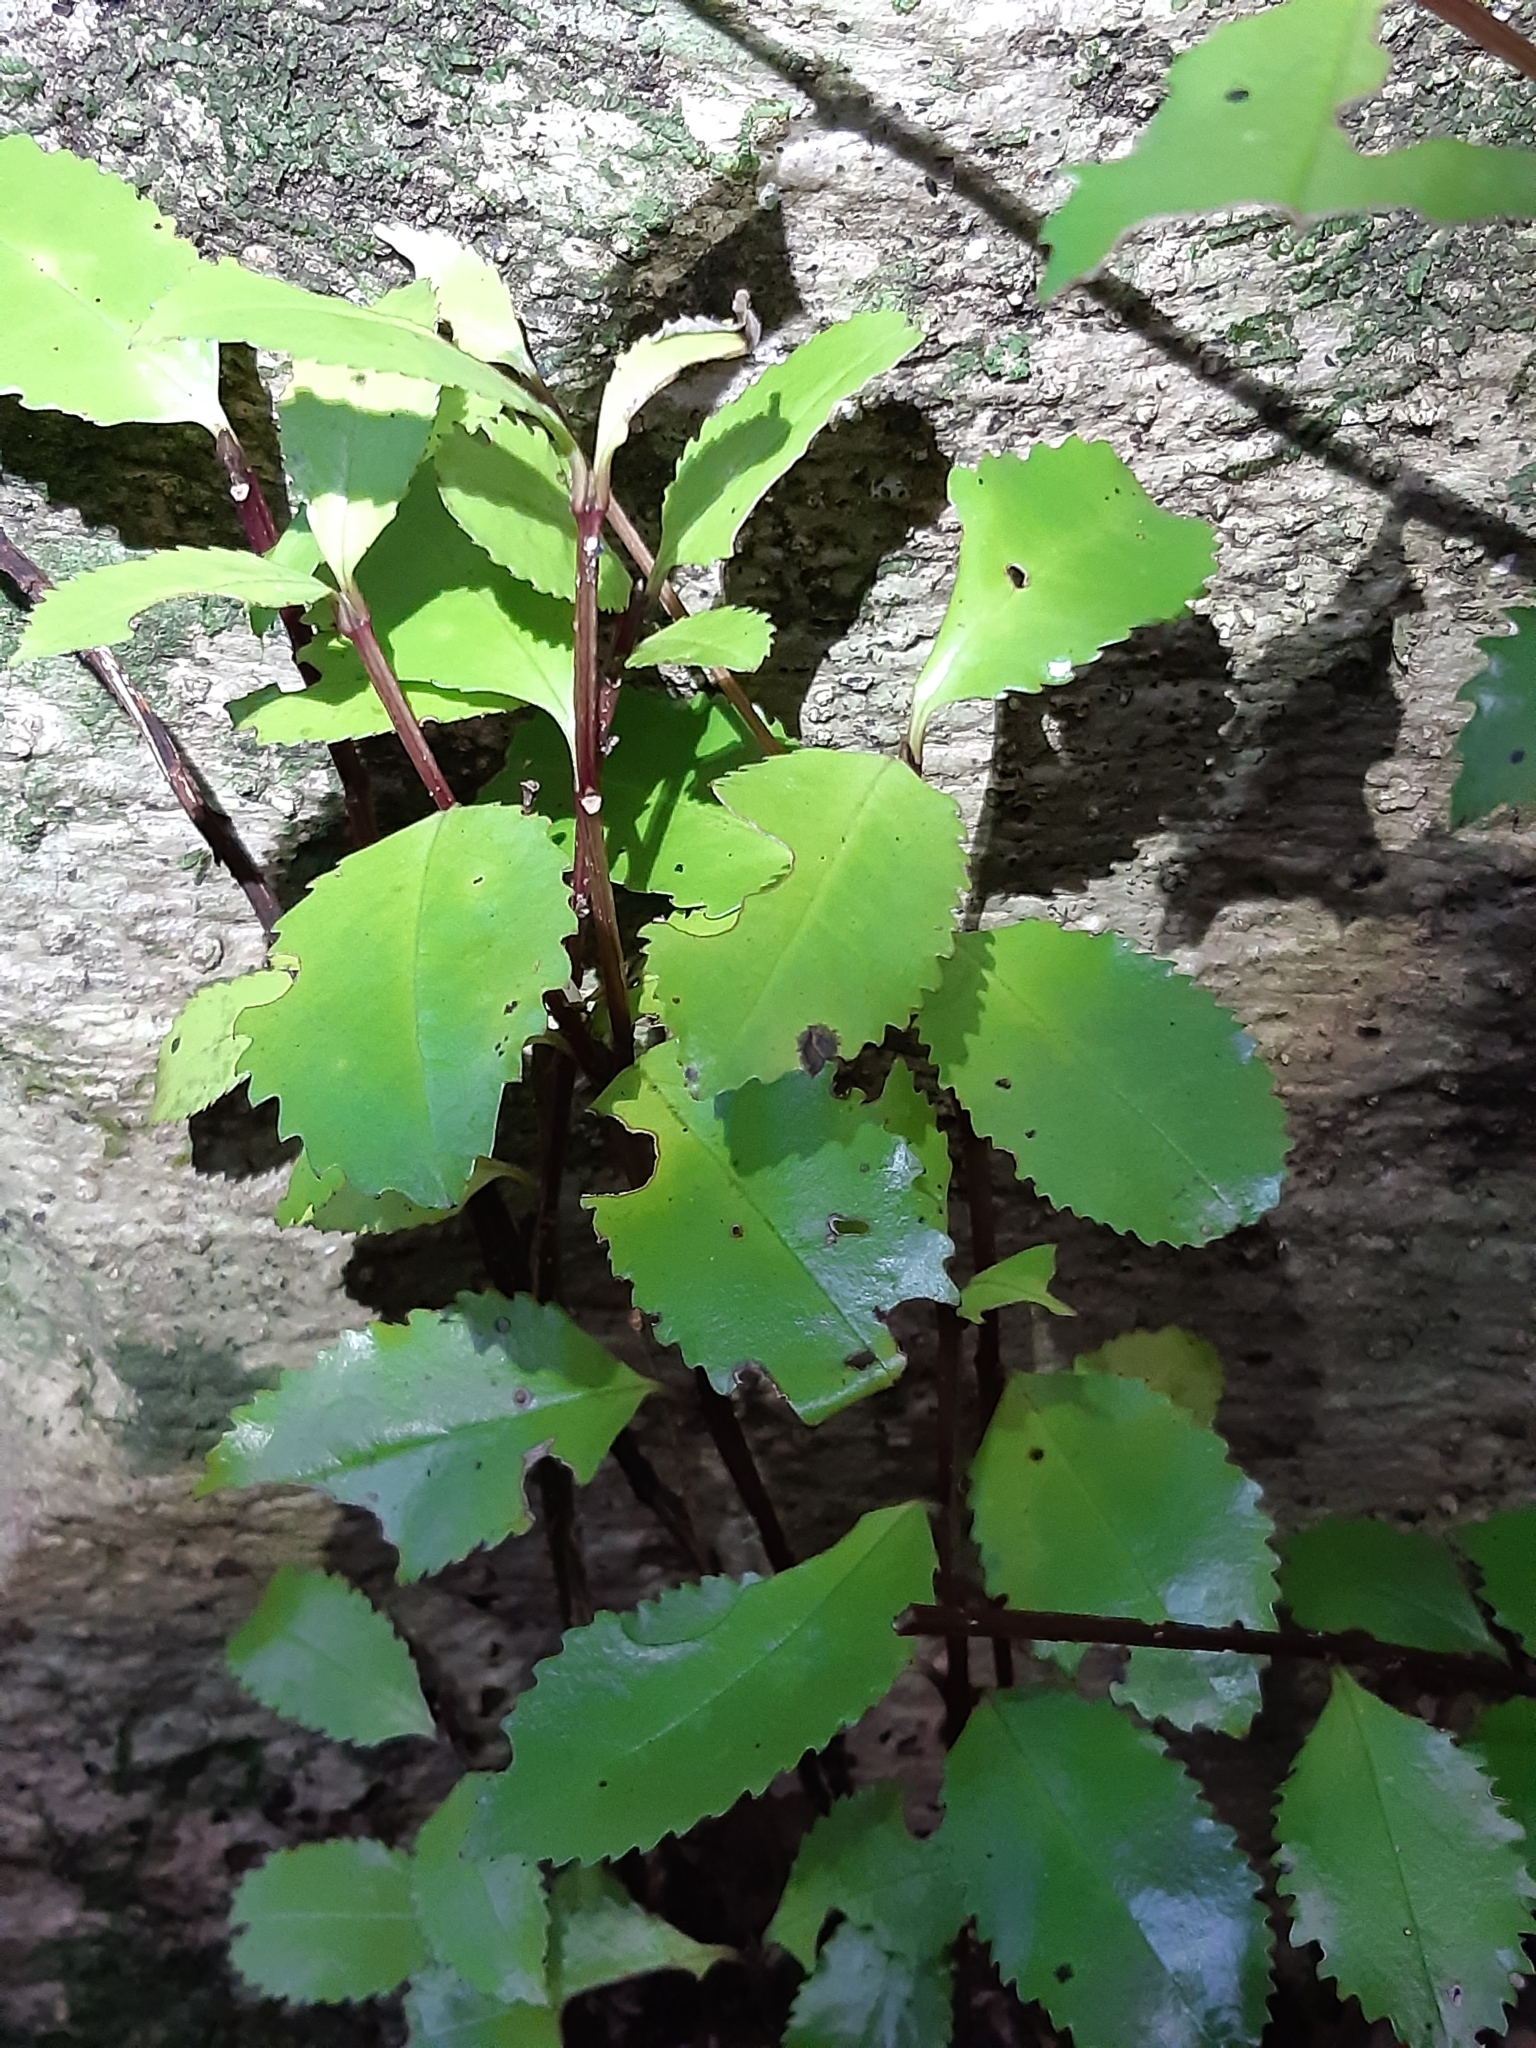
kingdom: Plantae
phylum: Tracheophyta
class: Magnoliopsida
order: Laurales
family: Atherospermataceae
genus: Laurelia
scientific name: Laurelia novae-zelandiae
